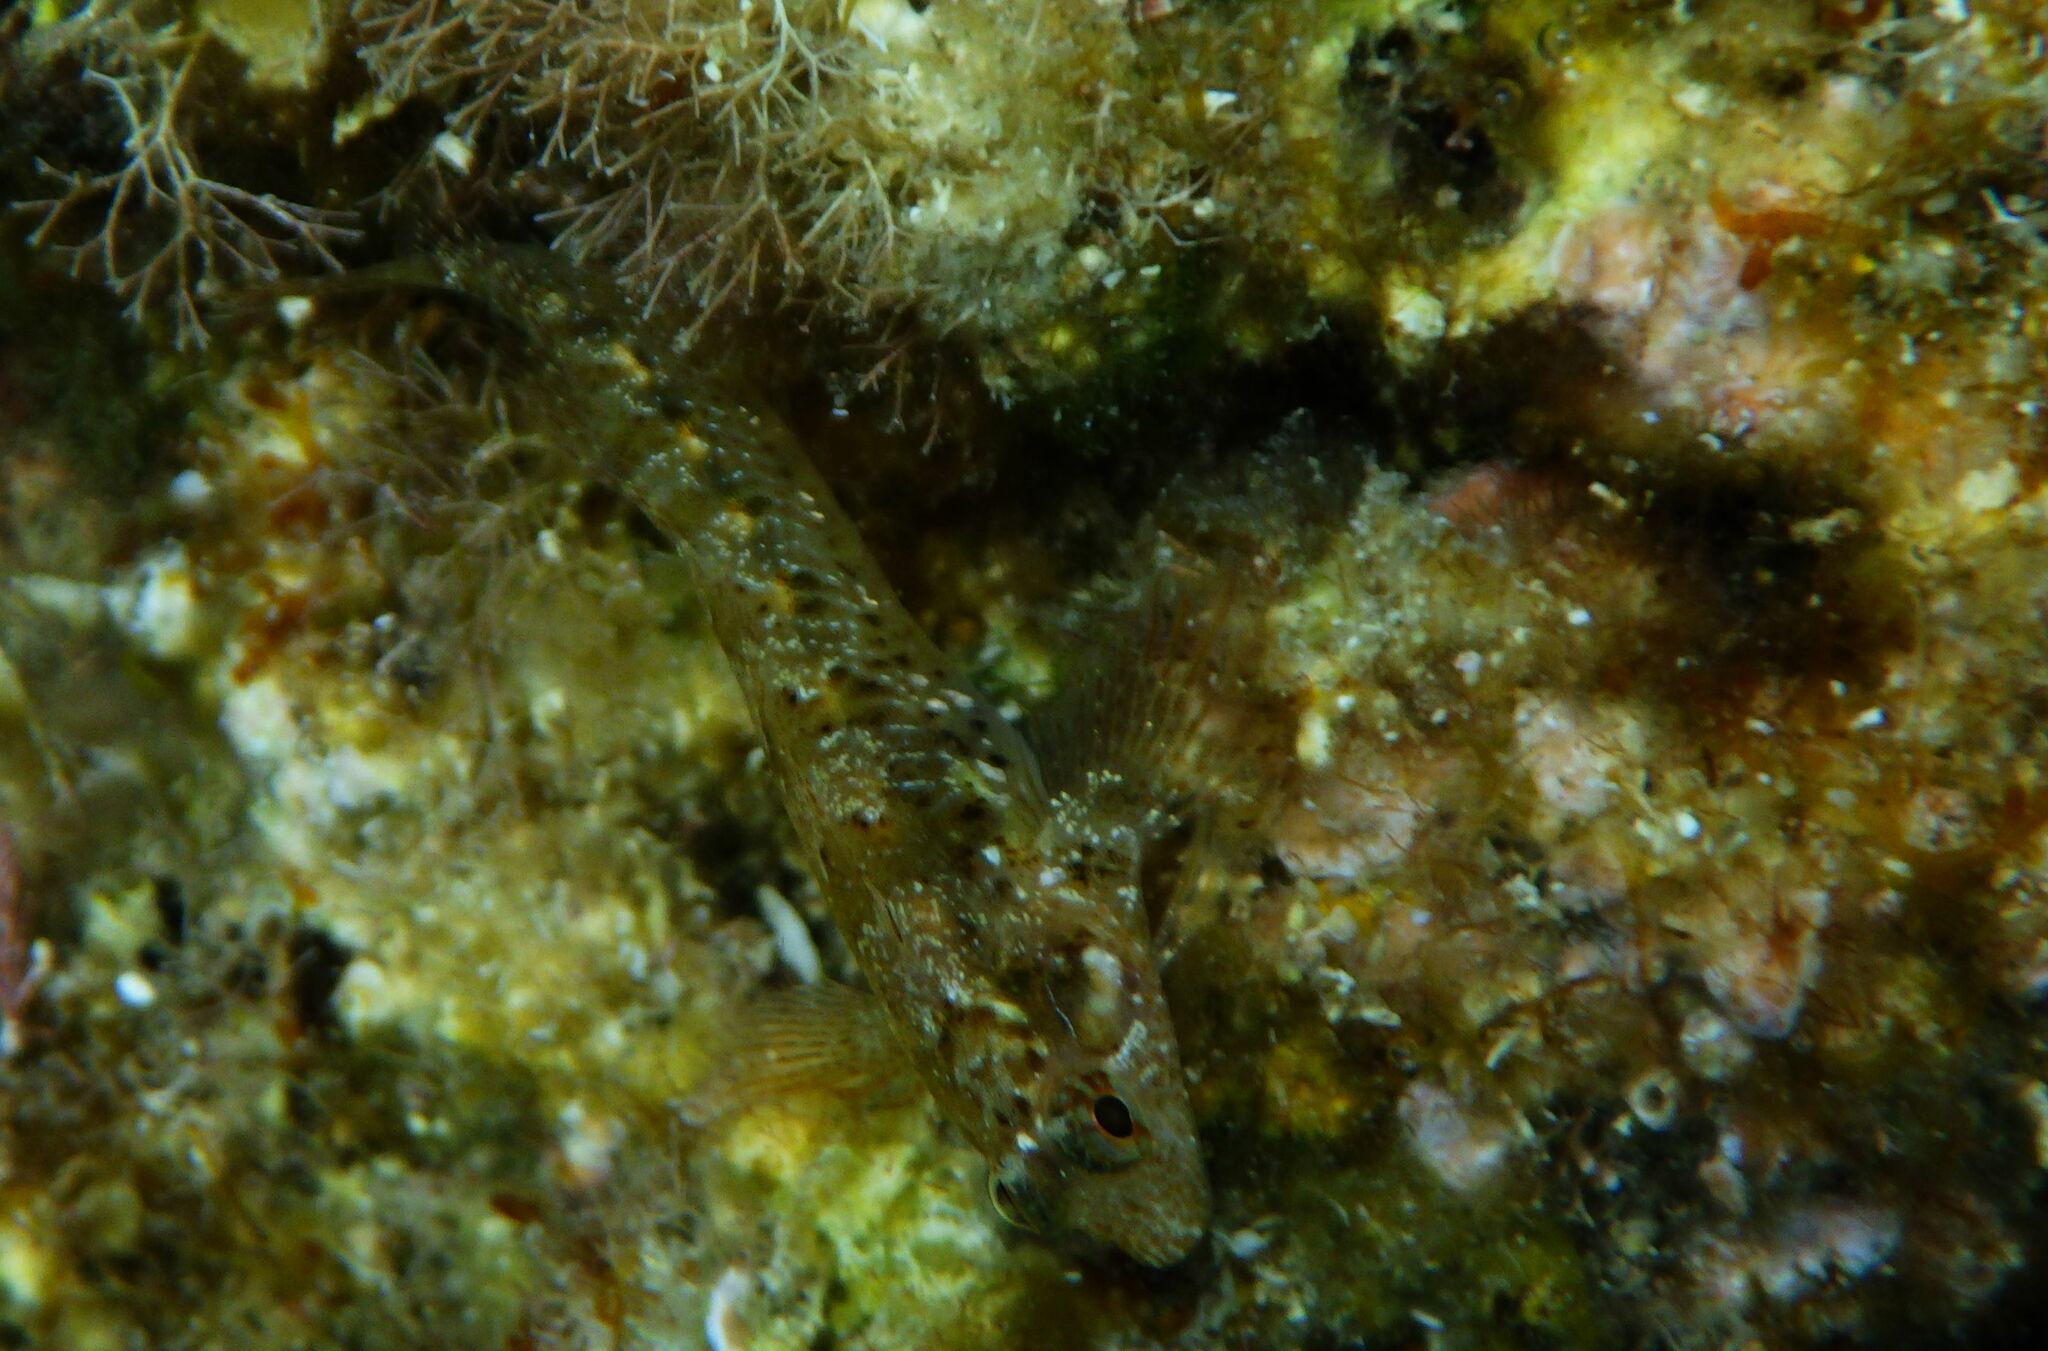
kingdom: Animalia
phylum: Chordata
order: Perciformes
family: Blenniidae
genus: Parablennius
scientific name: Parablennius incognitus
